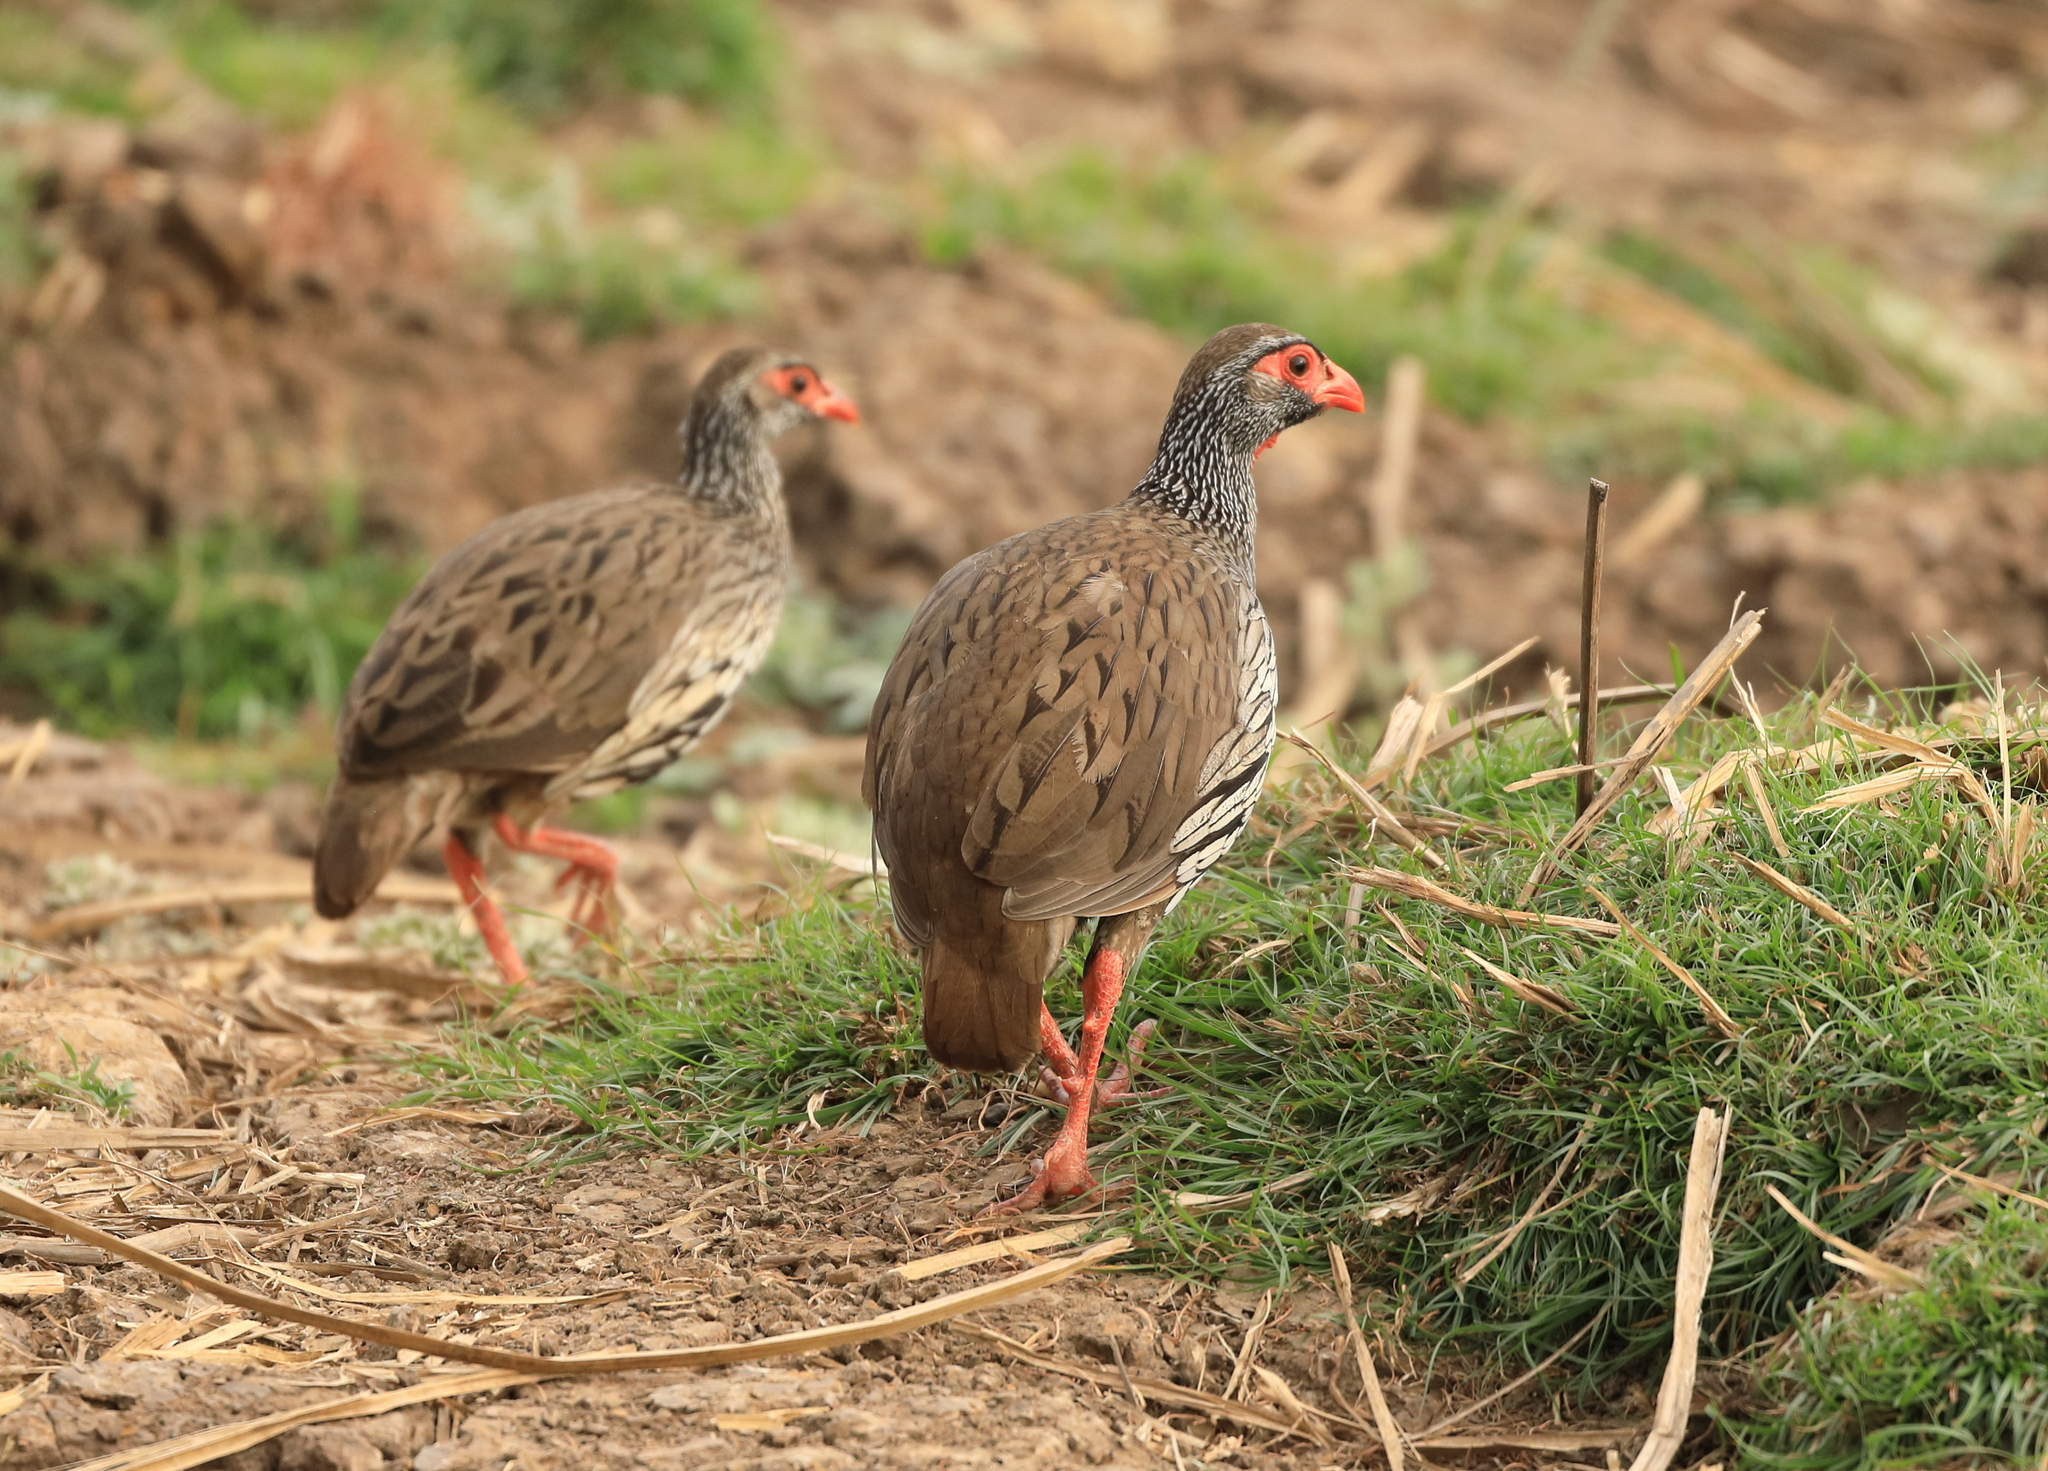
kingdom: Animalia
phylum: Chordata
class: Aves
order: Galliformes
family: Phasianidae
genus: Pternistis
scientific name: Pternistis afer
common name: Red-necked spurfowl
